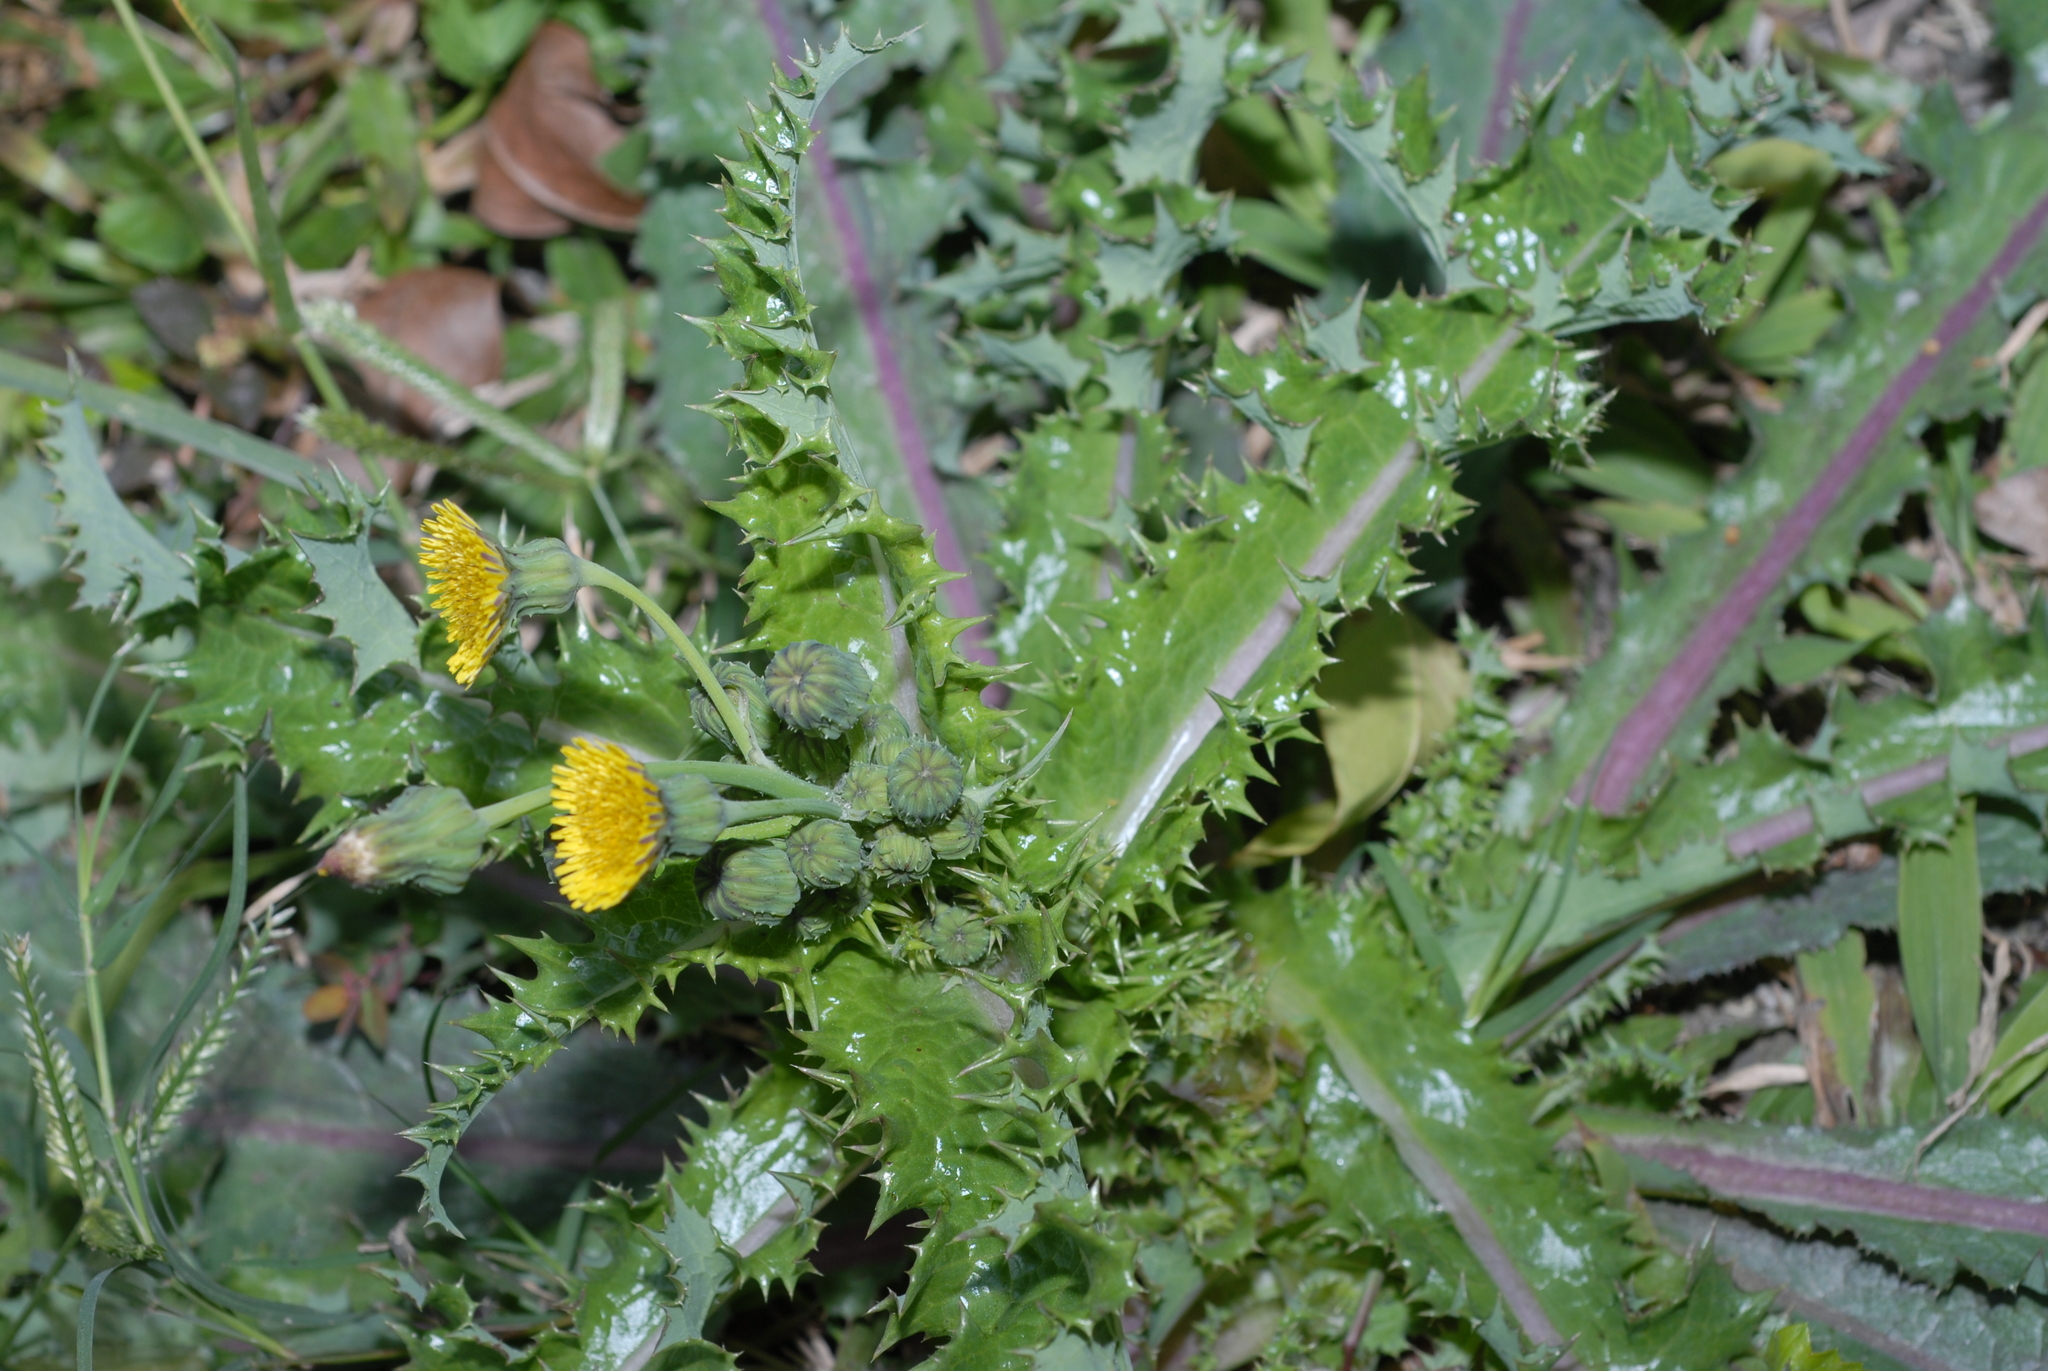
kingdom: Plantae
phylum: Tracheophyta
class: Magnoliopsida
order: Asterales
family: Asteraceae
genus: Sonchus
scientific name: Sonchus asper
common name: Prickly sow-thistle
